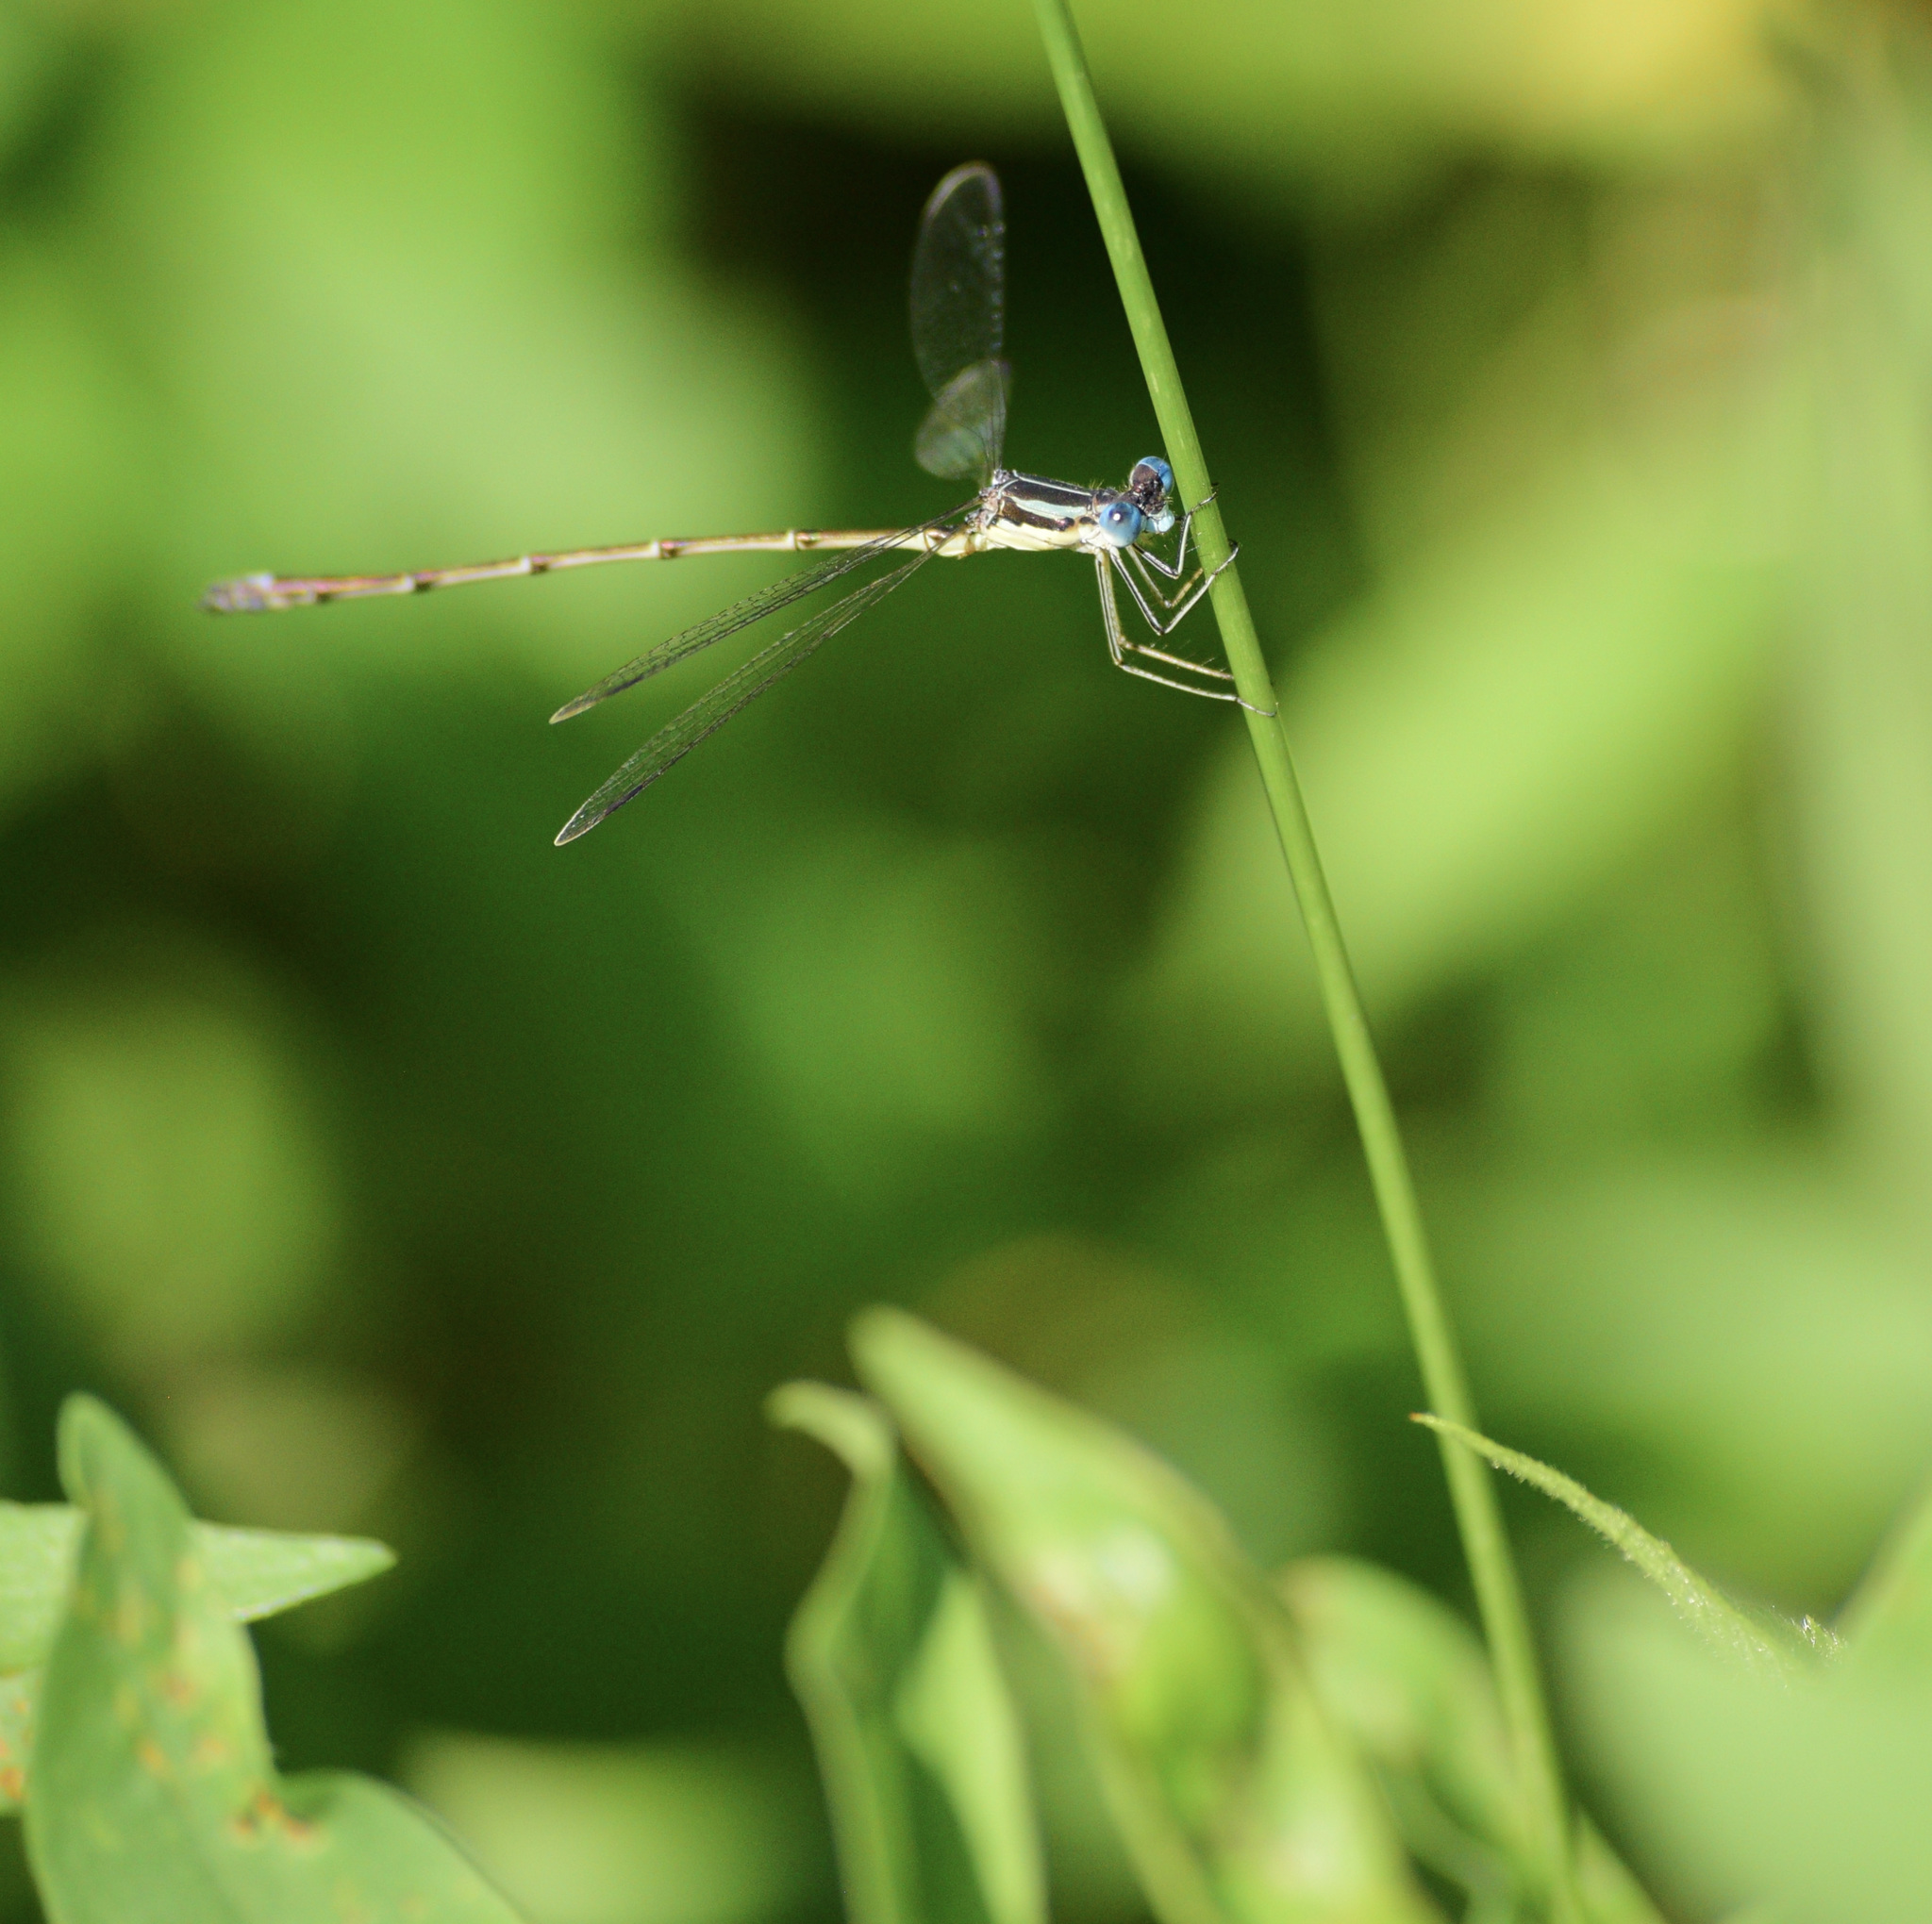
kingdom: Animalia
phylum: Arthropoda
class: Insecta
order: Odonata
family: Lestidae
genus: Lestes
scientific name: Lestes rectangularis
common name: Slender spreadwing
